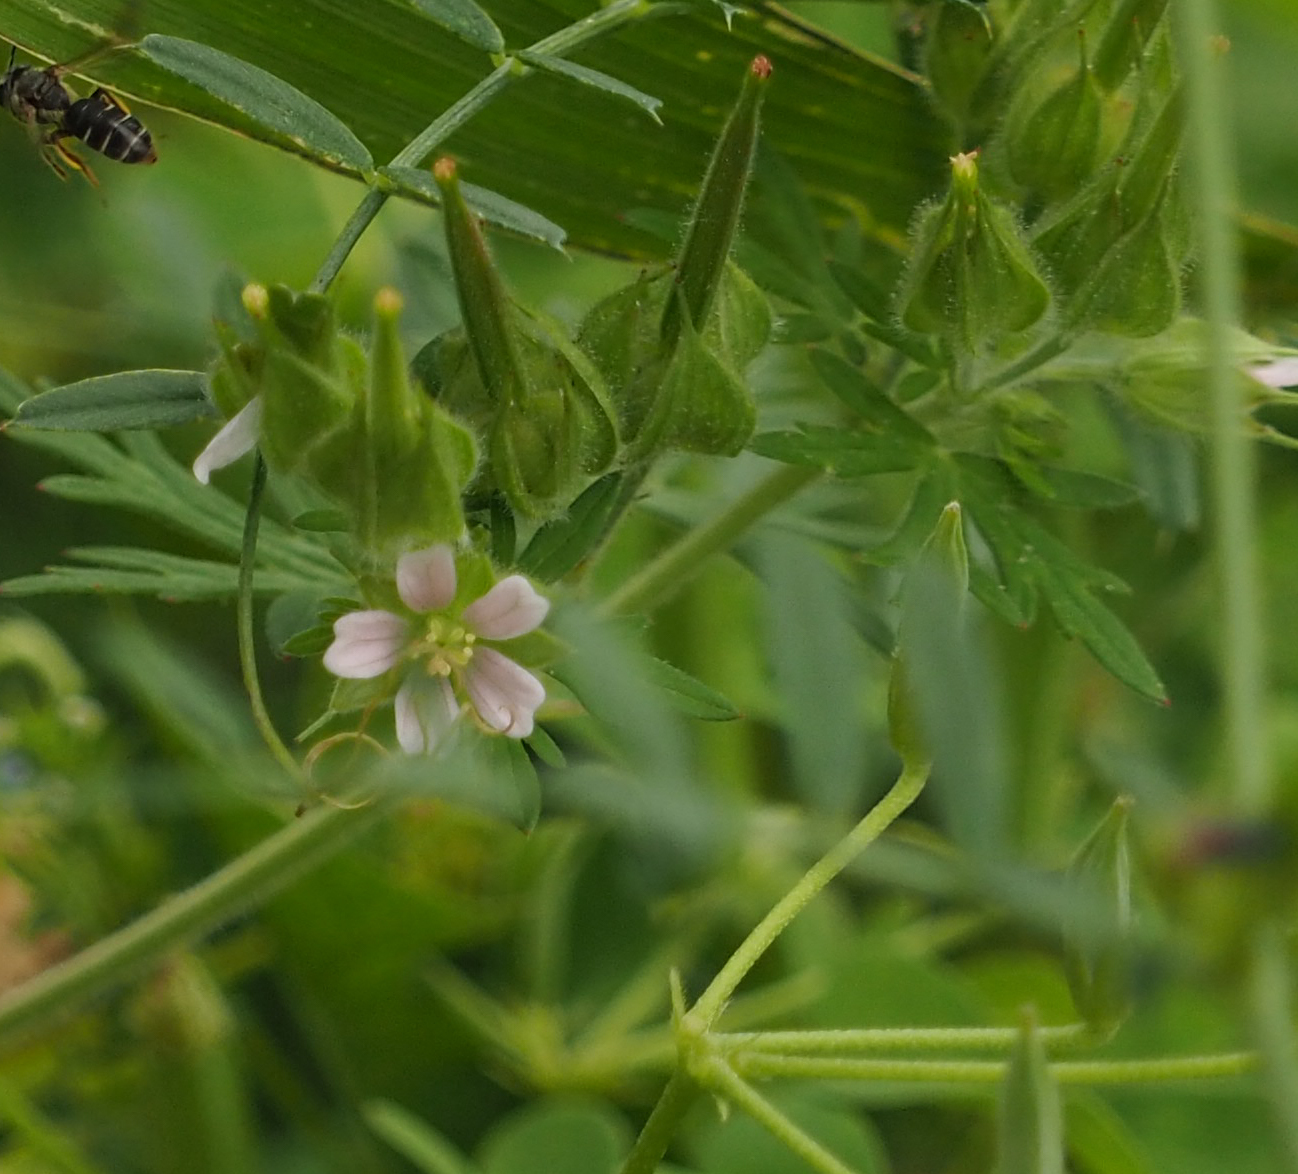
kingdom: Plantae
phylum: Tracheophyta
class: Magnoliopsida
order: Geraniales
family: Geraniaceae
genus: Geranium
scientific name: Geranium carolinianum
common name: Carolina crane's-bill
